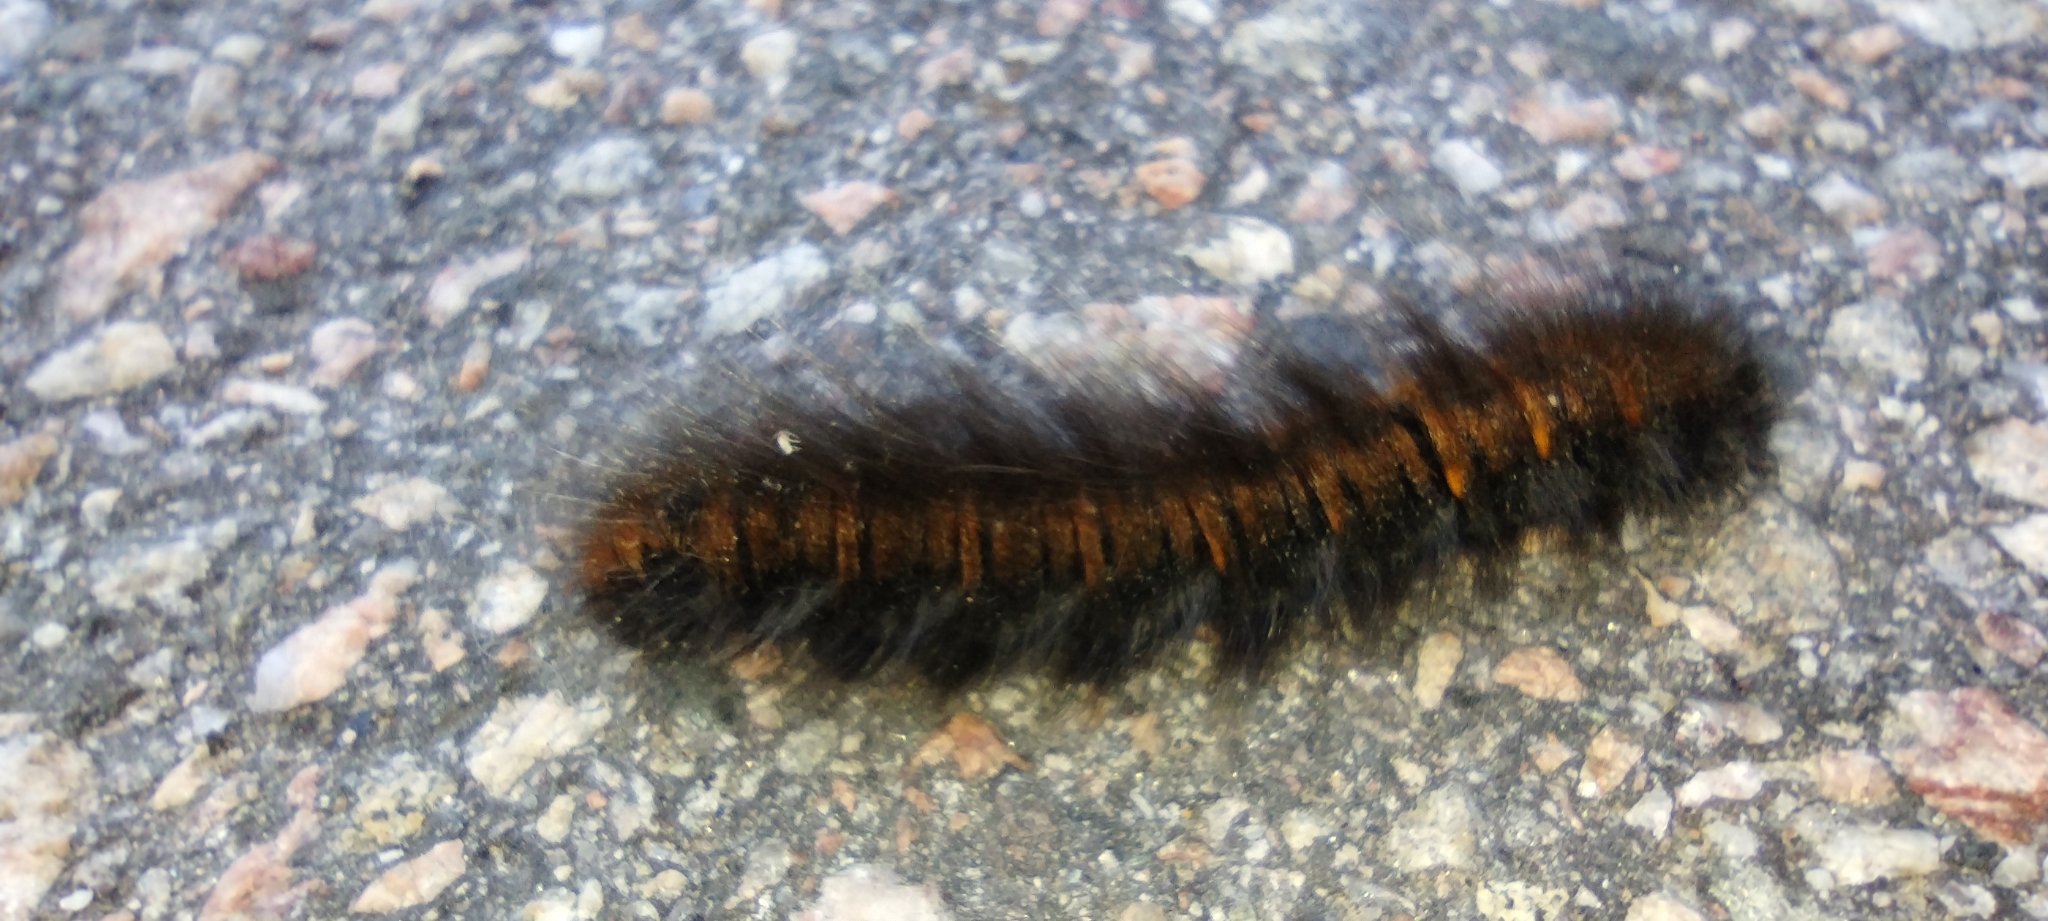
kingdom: Animalia
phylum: Arthropoda
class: Insecta
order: Lepidoptera
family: Lasiocampidae
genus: Macrothylacia
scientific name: Macrothylacia rubi
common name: Fox moth
